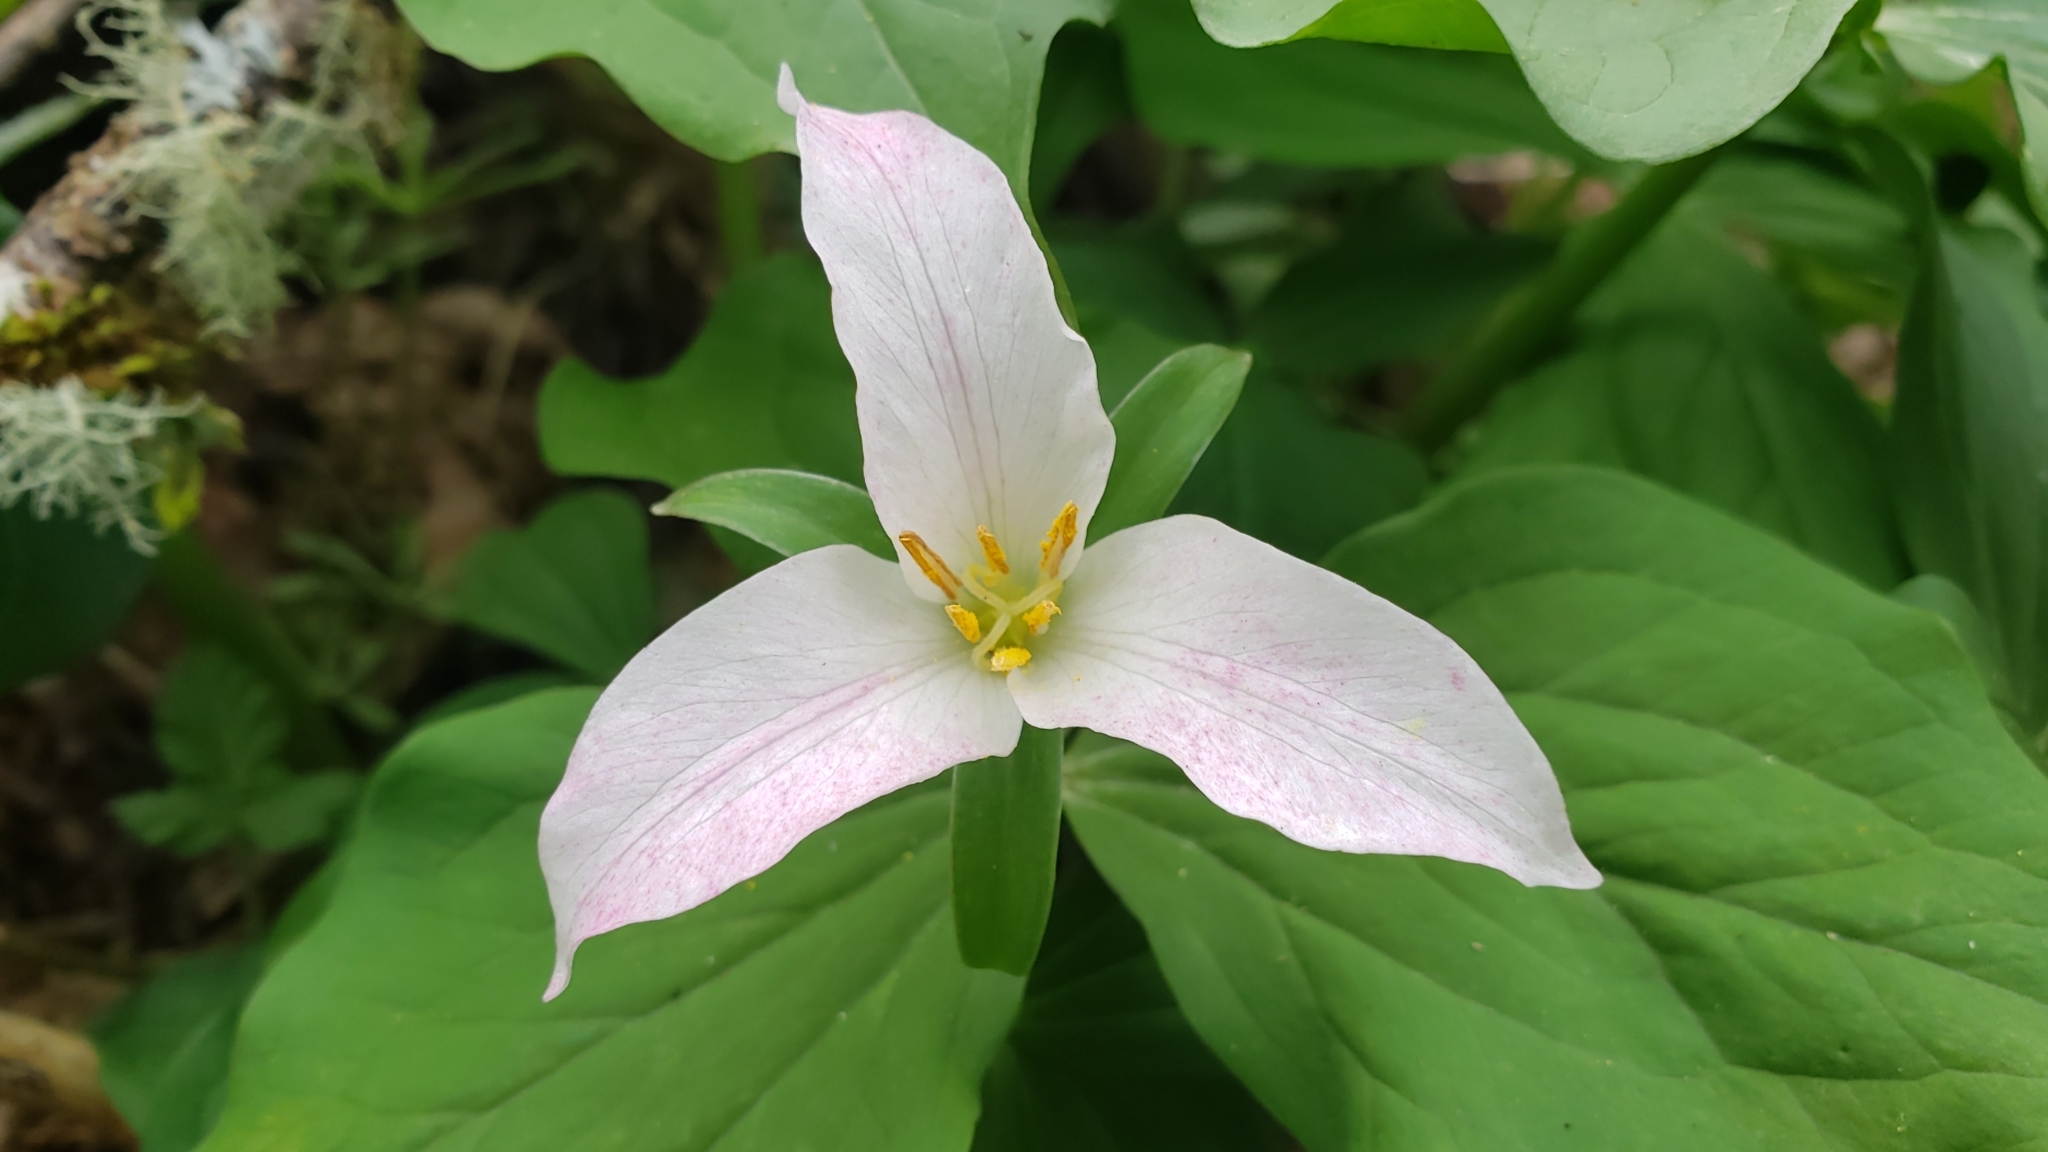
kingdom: Plantae
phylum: Tracheophyta
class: Liliopsida
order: Liliales
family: Melanthiaceae
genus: Trillium
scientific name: Trillium ovatum
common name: Pacific trillium
